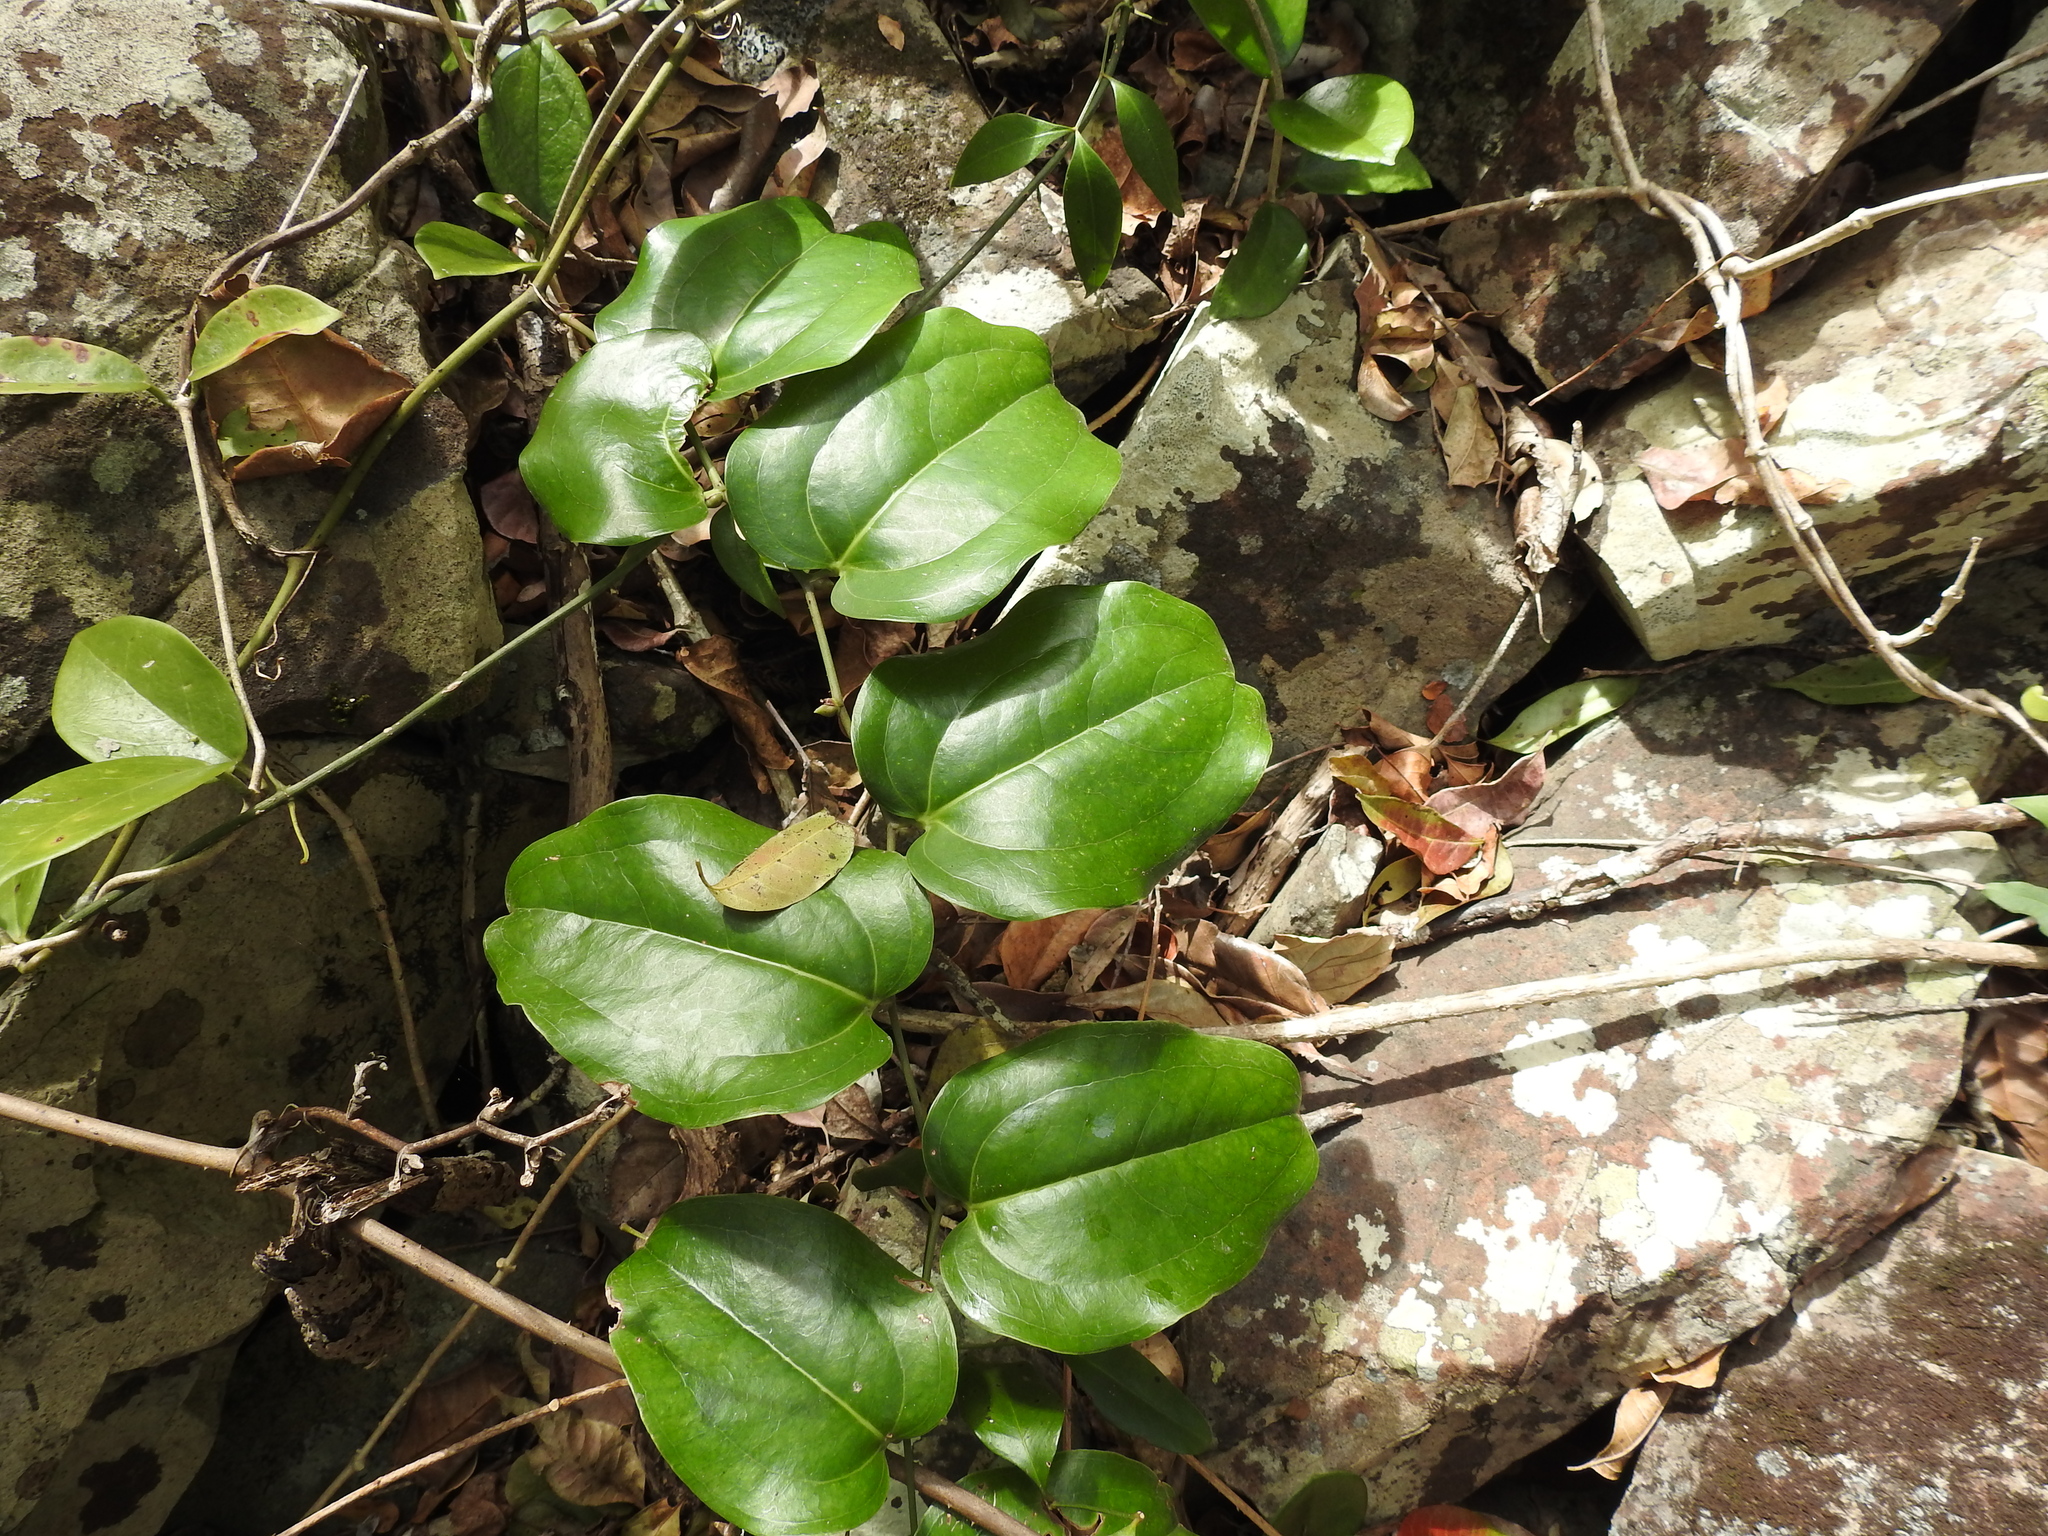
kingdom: Plantae
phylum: Tracheophyta
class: Liliopsida
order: Liliales
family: Smilacaceae
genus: Smilax
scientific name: Smilax australis
